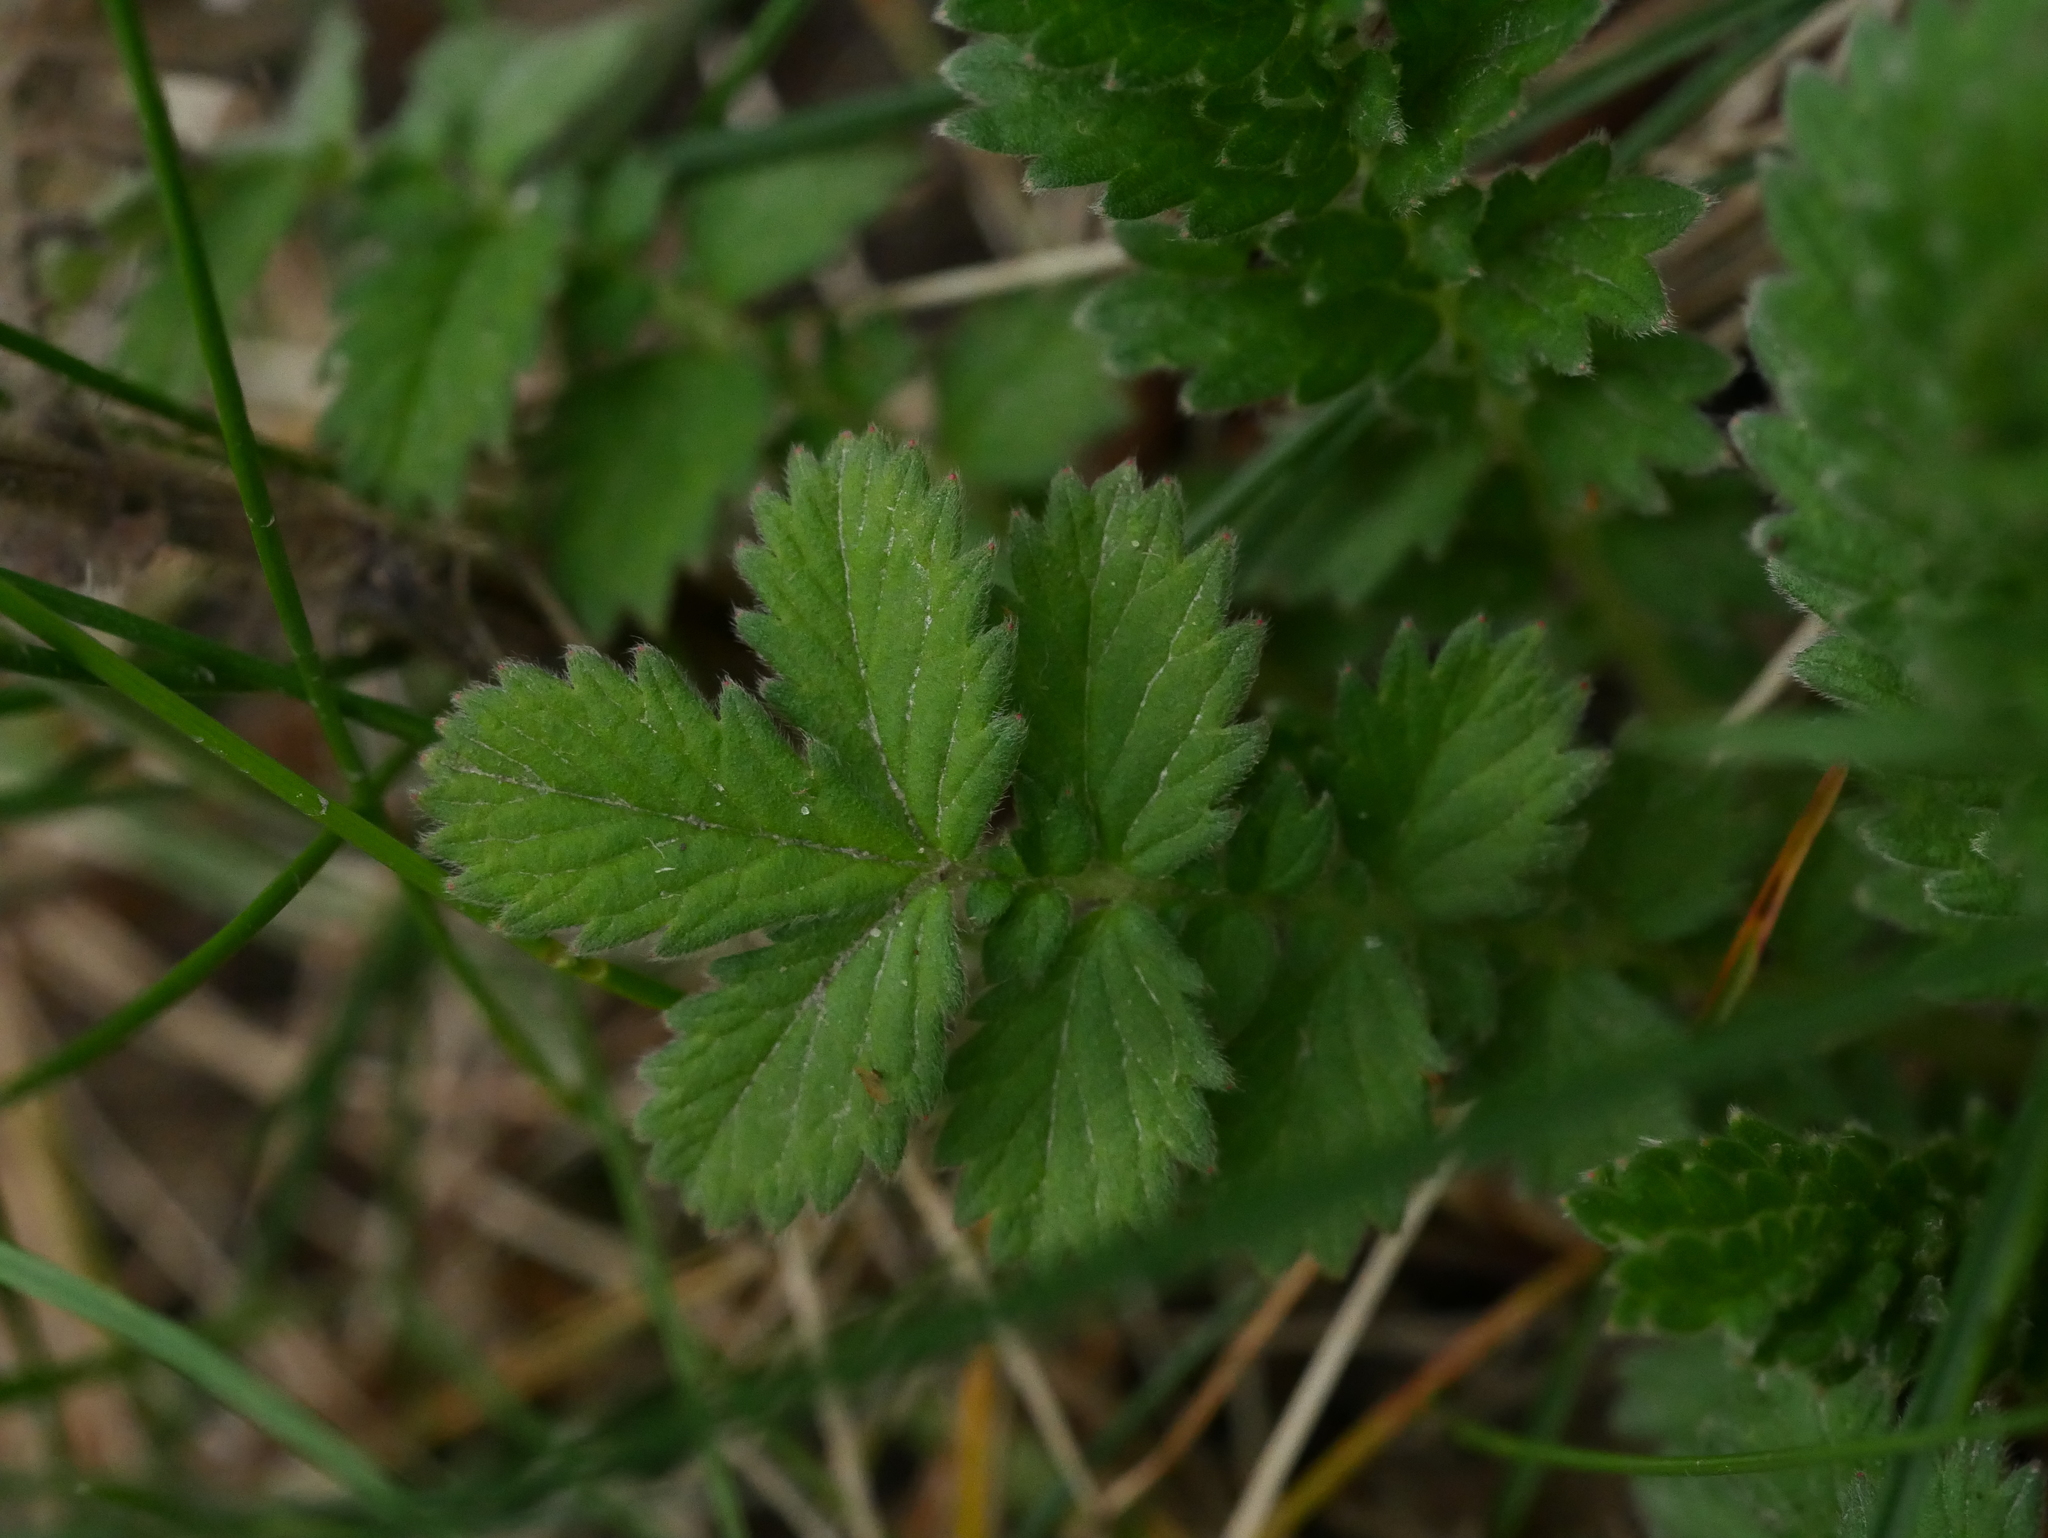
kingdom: Plantae
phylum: Tracheophyta
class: Magnoliopsida
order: Rosales
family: Rosaceae
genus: Agrimonia
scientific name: Agrimonia eupatoria
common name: Agrimony
